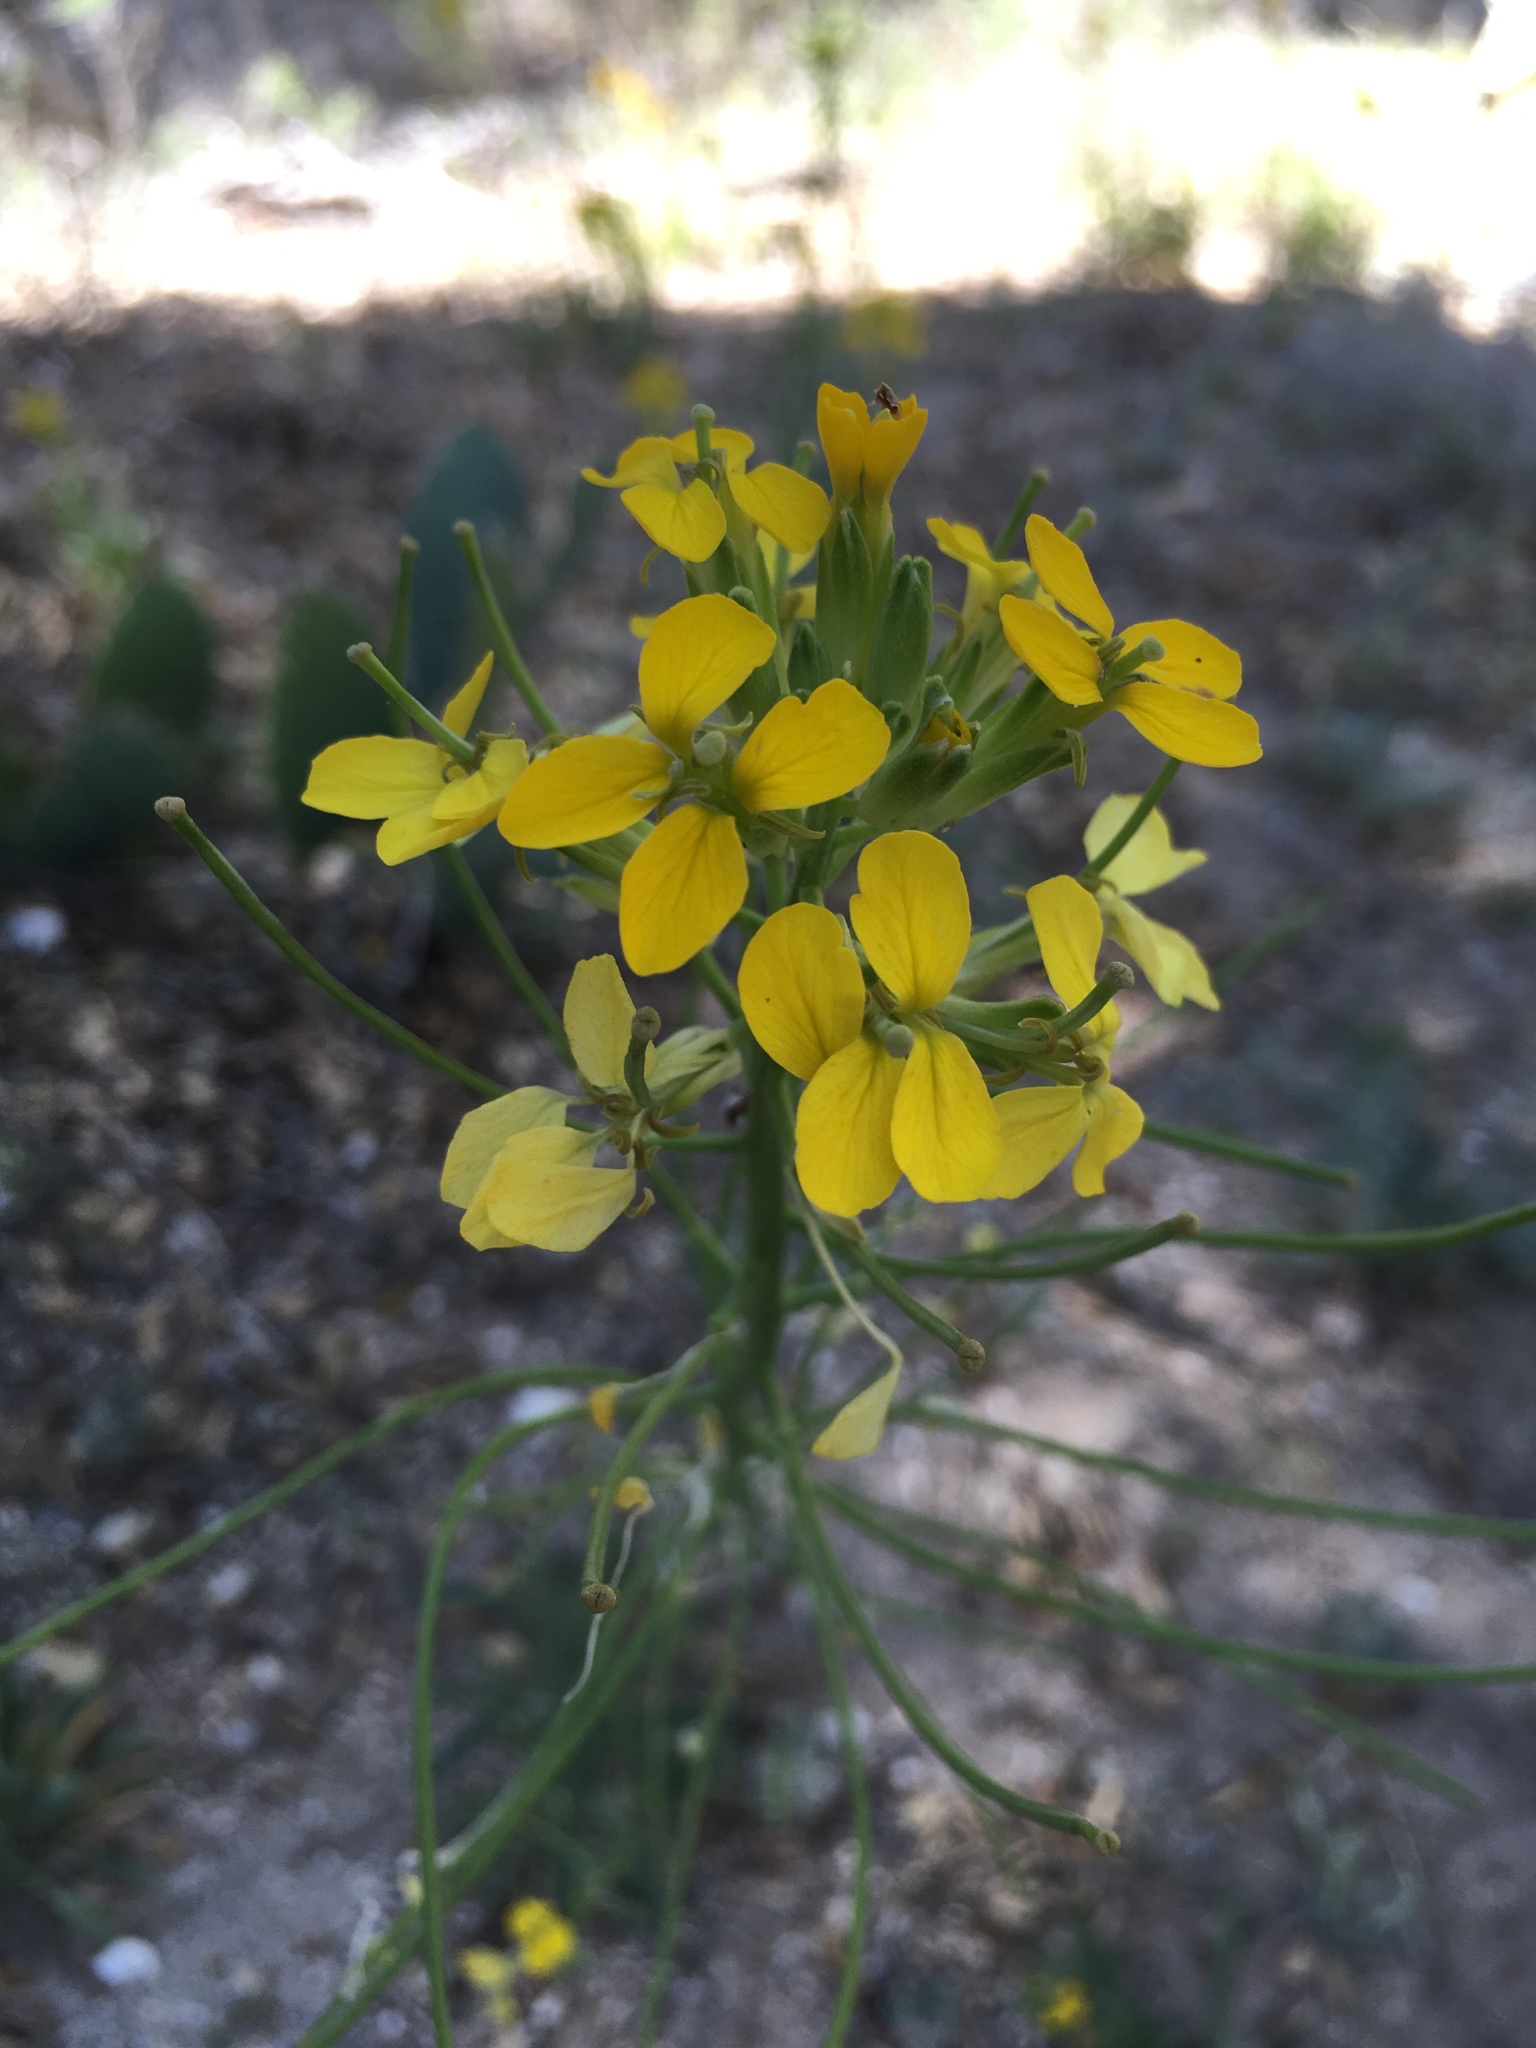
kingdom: Plantae
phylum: Tracheophyta
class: Magnoliopsida
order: Brassicales
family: Brassicaceae
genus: Erysimum
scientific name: Erysimum capitatum
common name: Western wallflower
